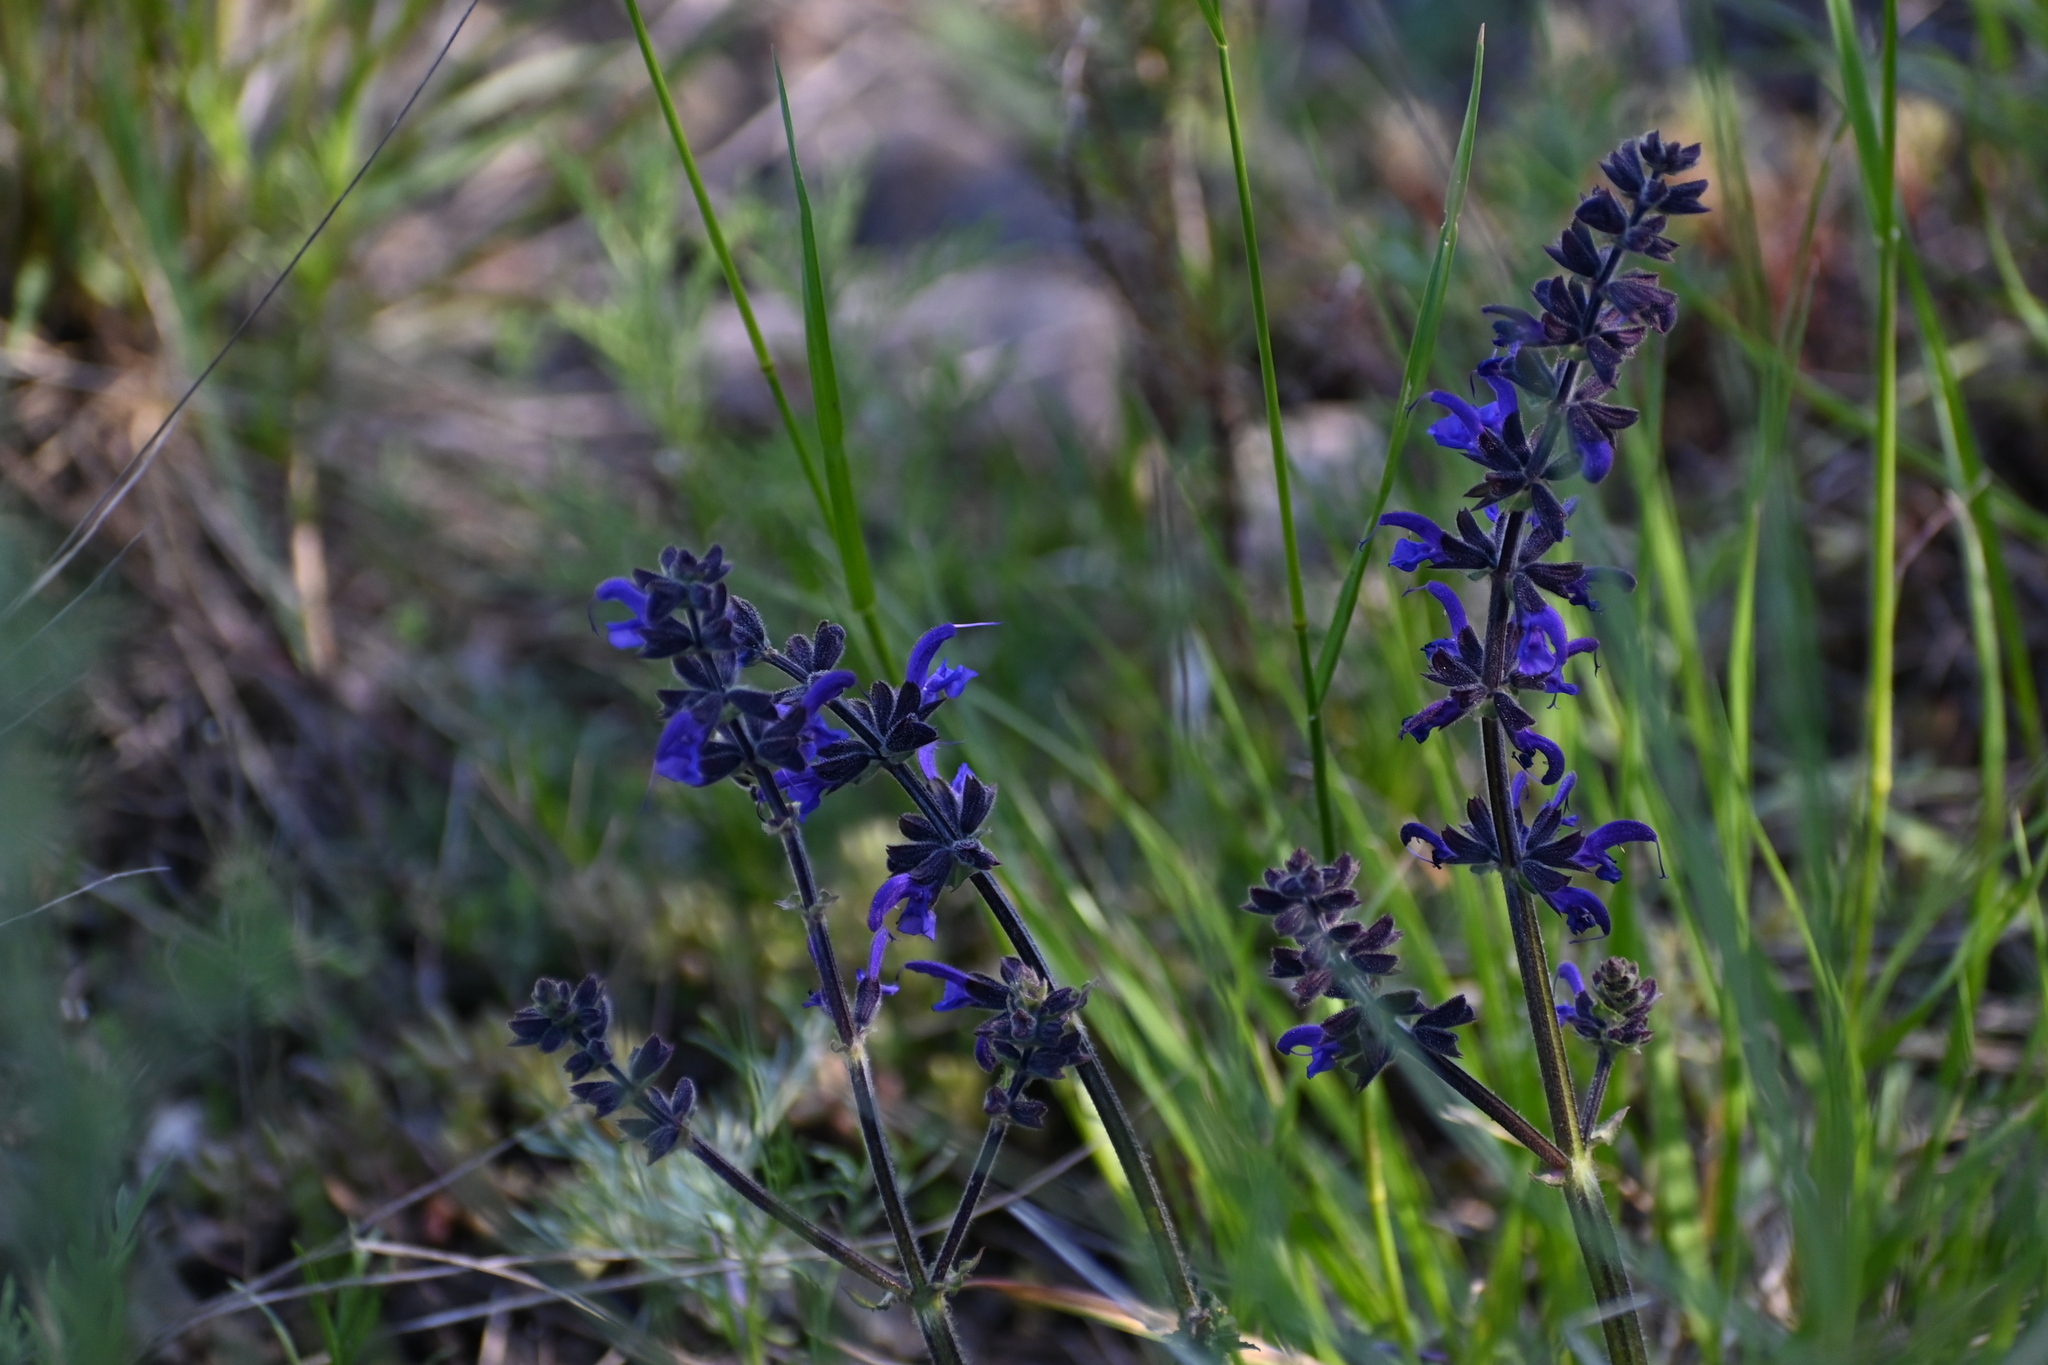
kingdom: Plantae
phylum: Tracheophyta
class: Magnoliopsida
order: Lamiales
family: Lamiaceae
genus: Salvia
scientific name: Salvia pratensis
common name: Meadow sage
